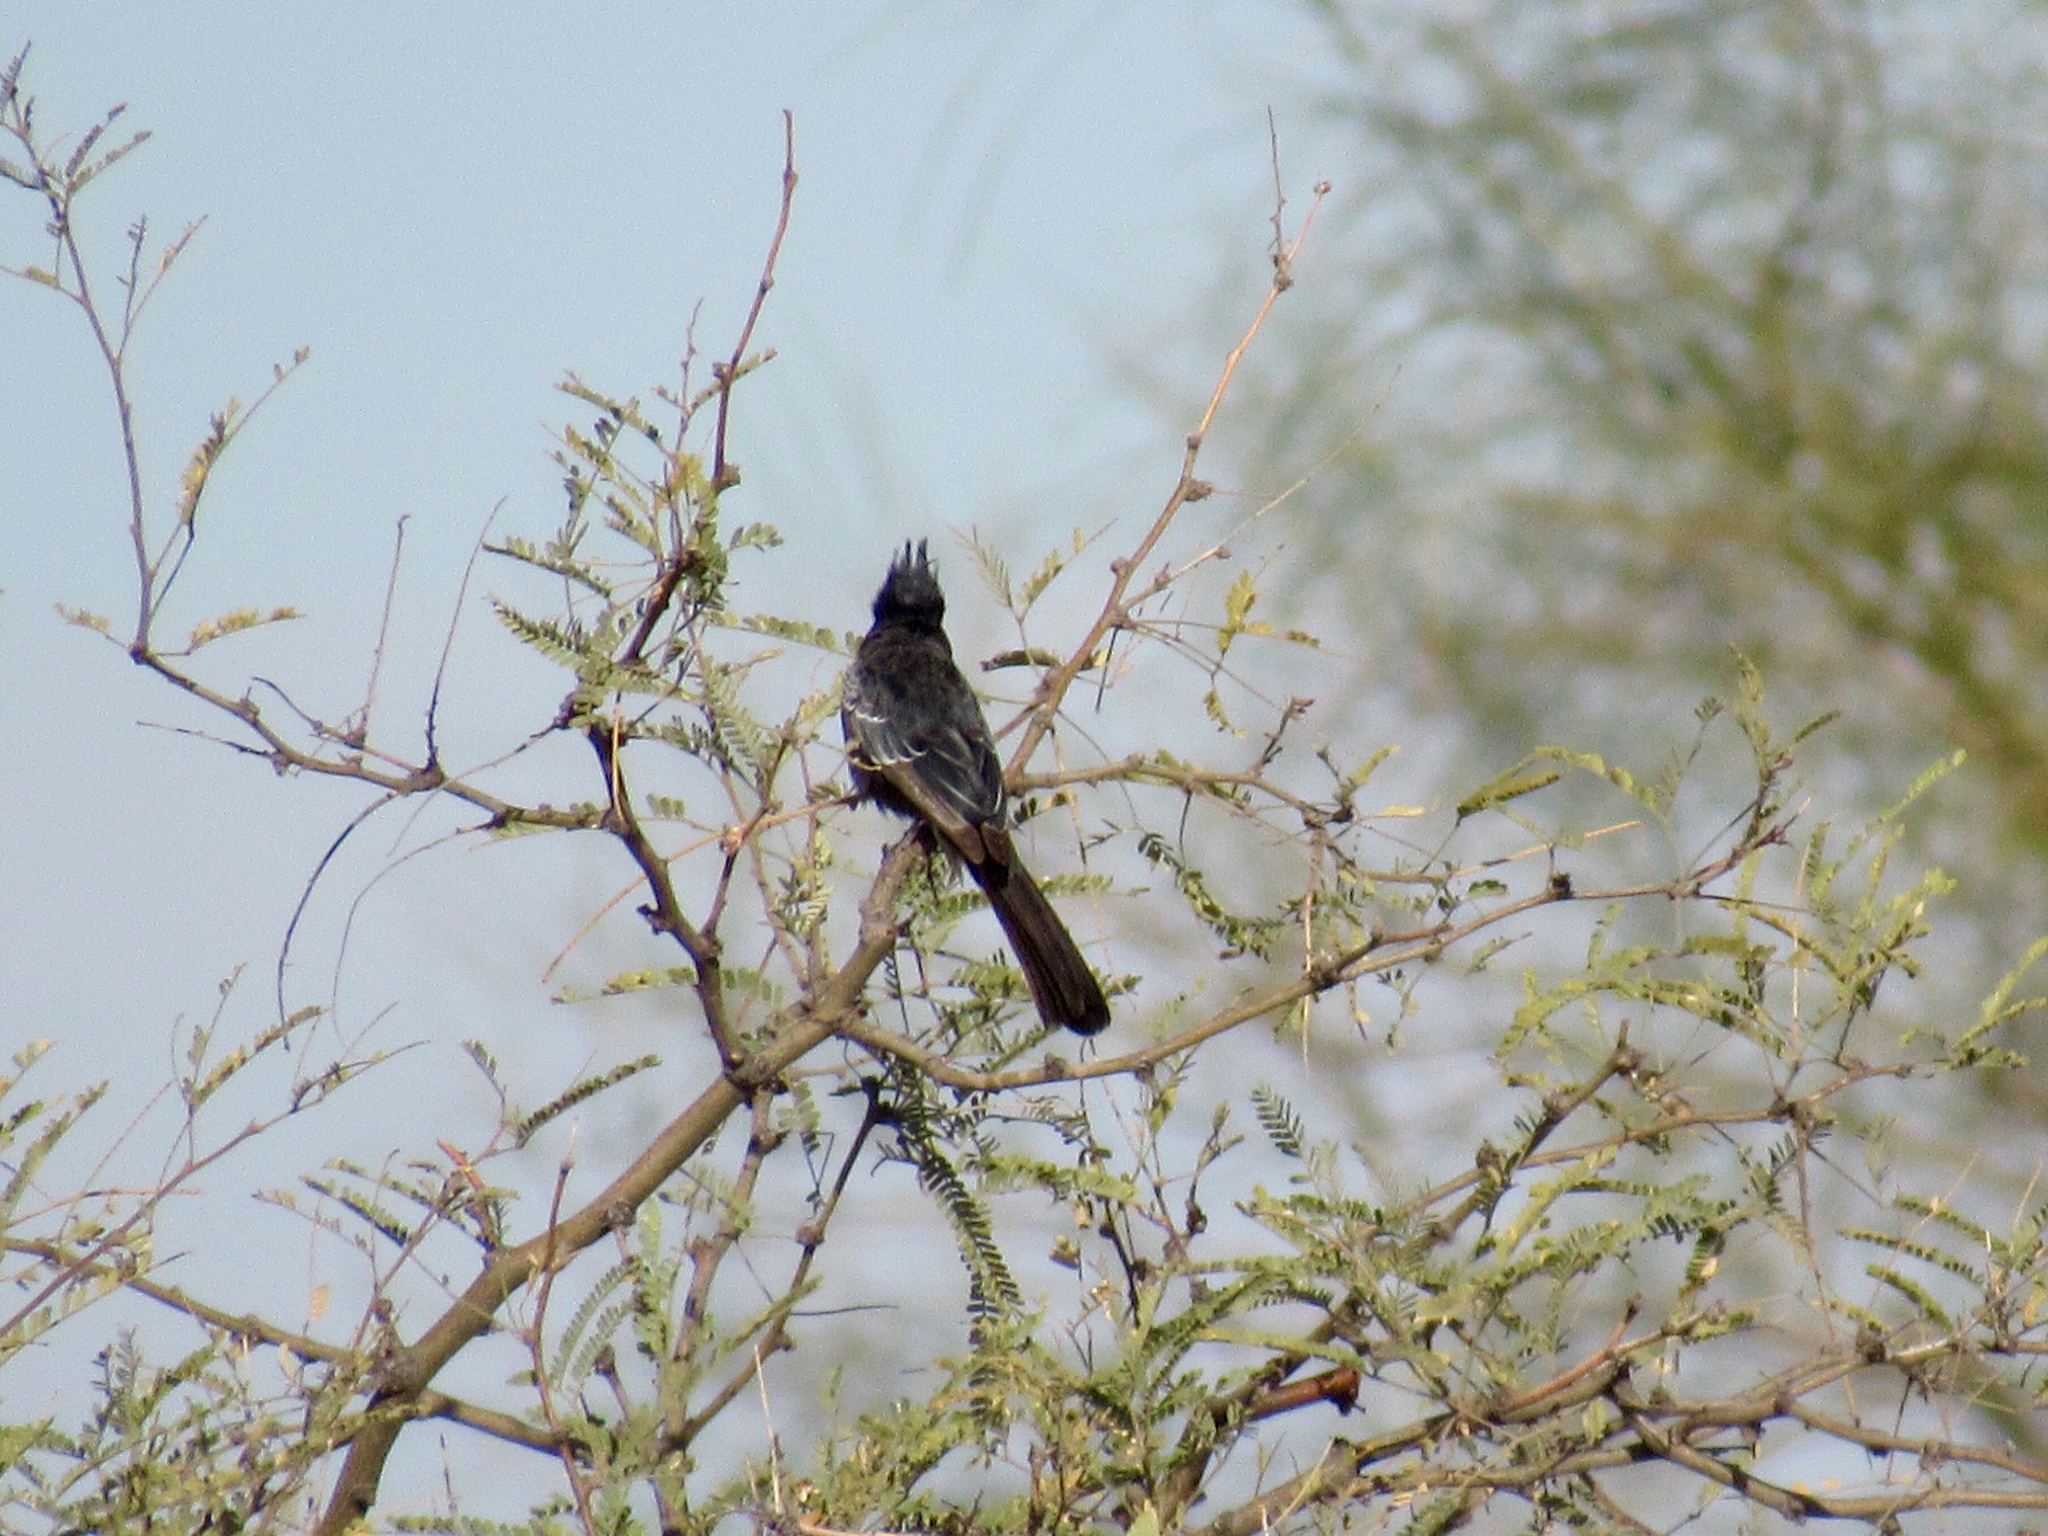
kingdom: Animalia
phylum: Chordata
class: Aves
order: Passeriformes
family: Ptilogonatidae
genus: Phainopepla
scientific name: Phainopepla nitens
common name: Phainopepla
